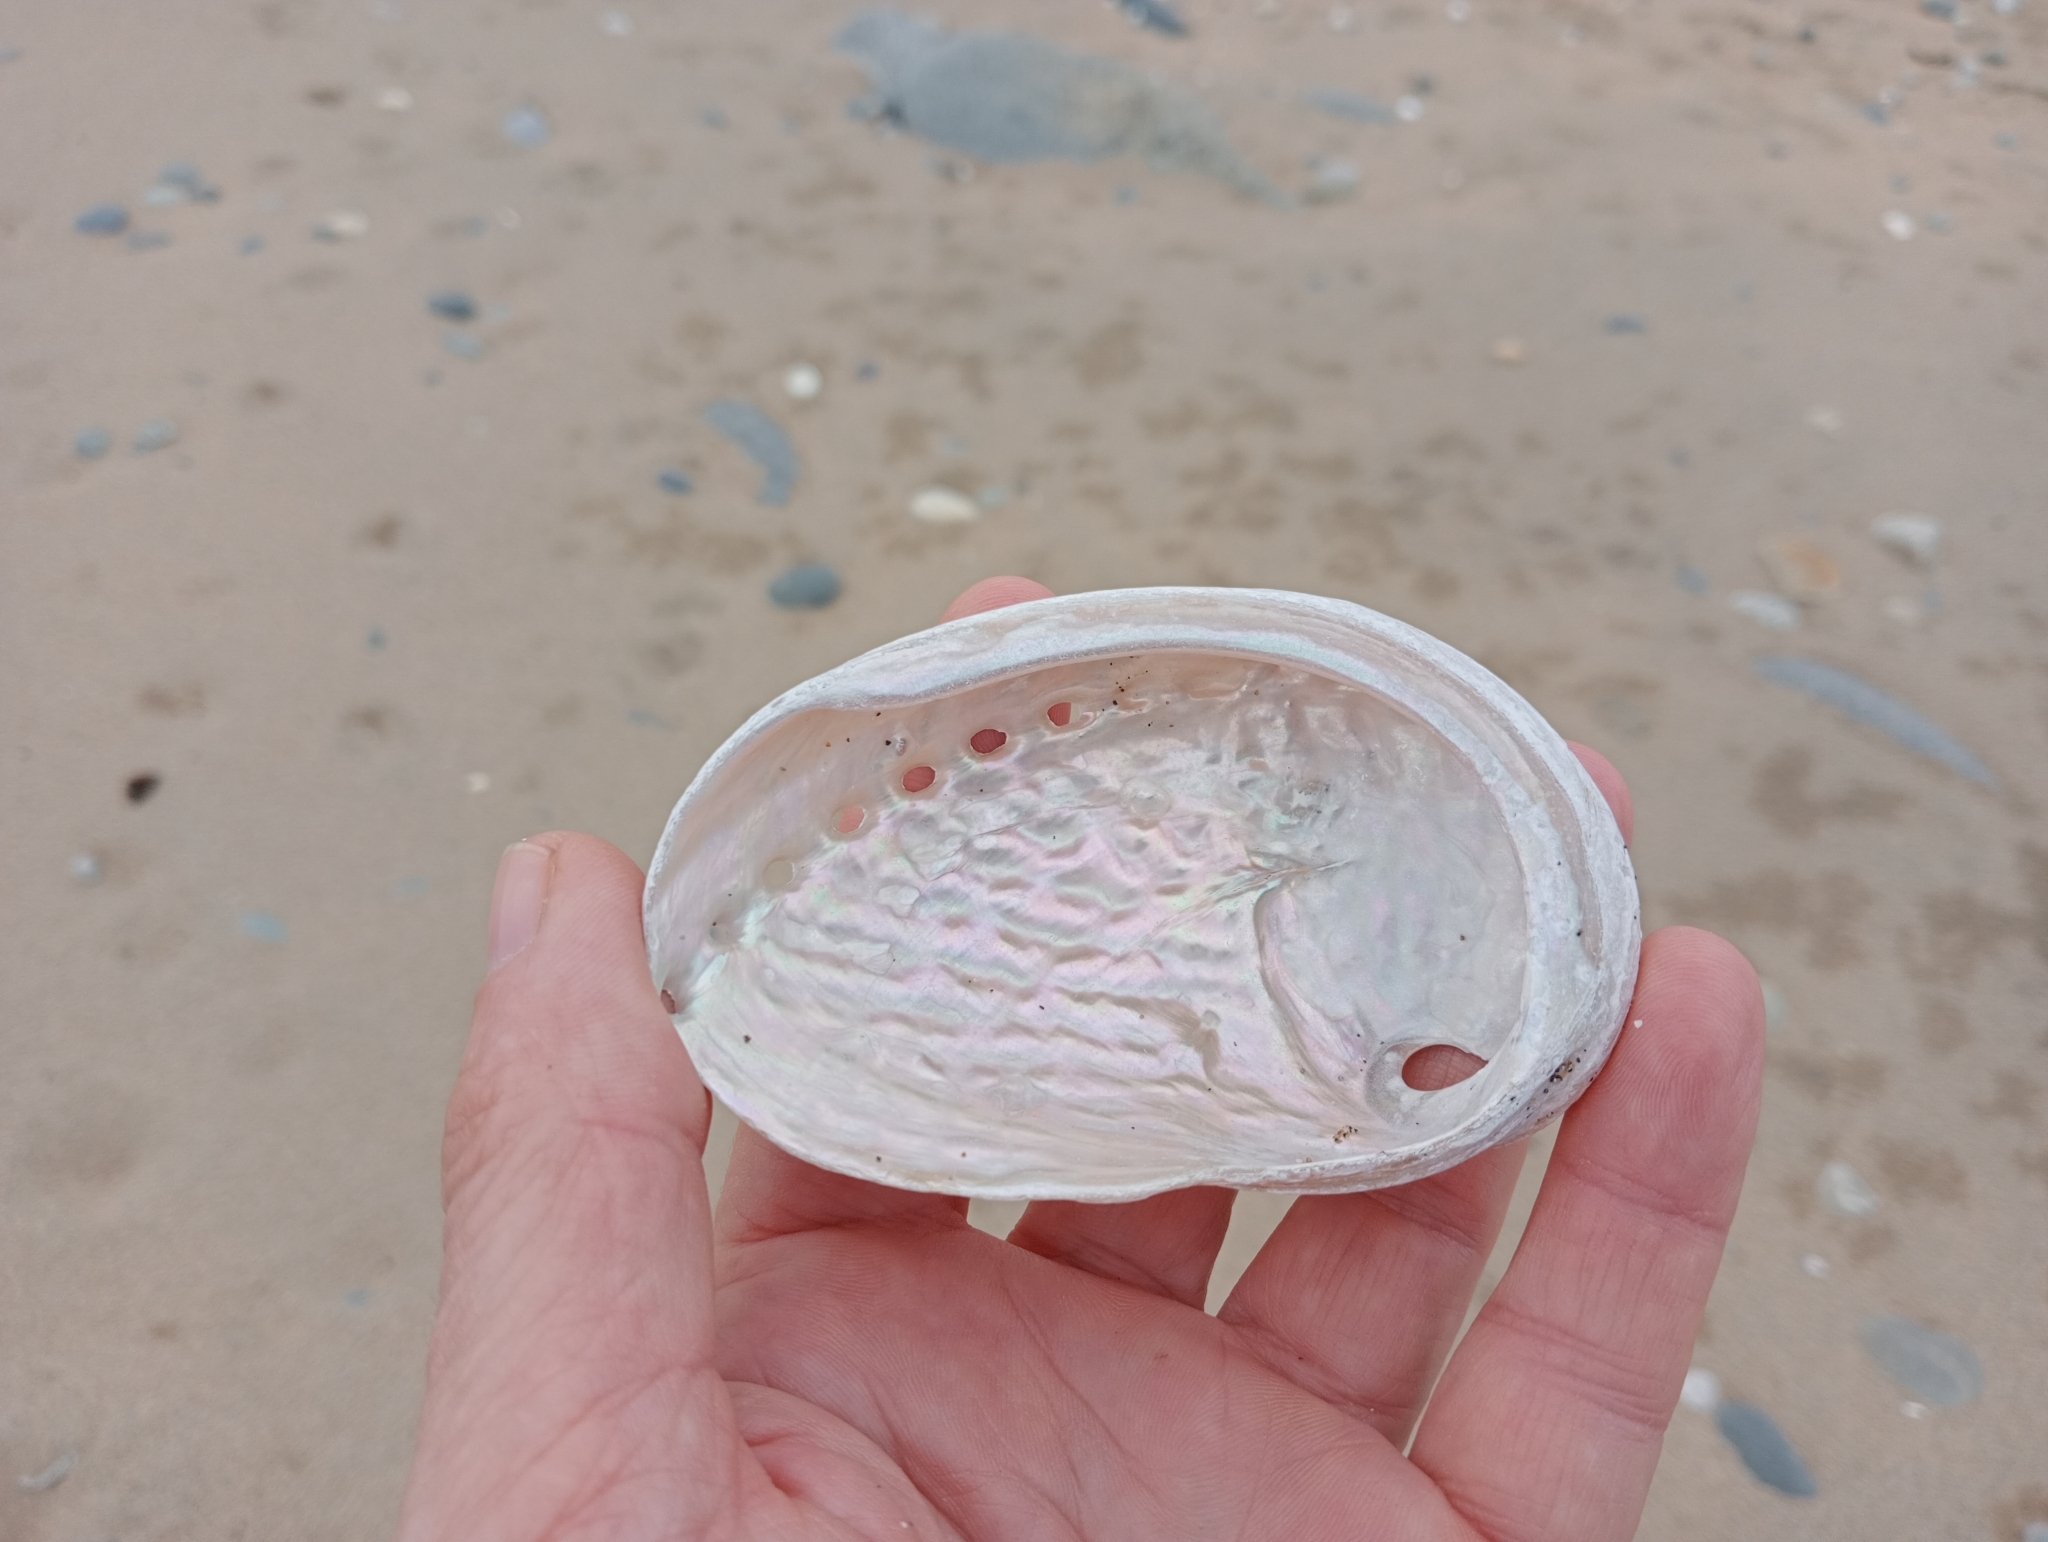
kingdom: Animalia
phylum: Mollusca
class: Gastropoda
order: Lepetellida
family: Haliotidae
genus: Haliotis
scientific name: Haliotis australis
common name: Silver abalone
